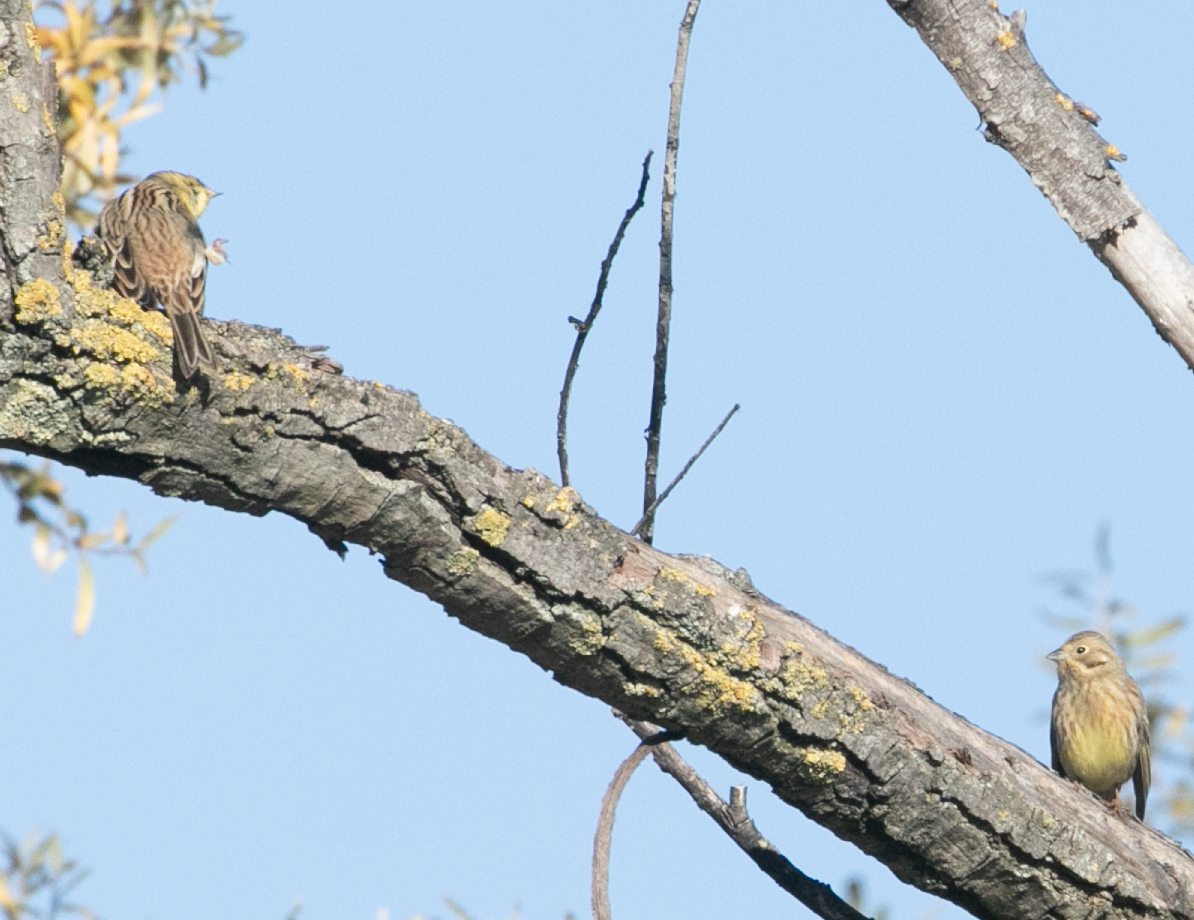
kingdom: Animalia
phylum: Chordata
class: Aves
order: Passeriformes
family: Emberizidae
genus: Emberiza
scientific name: Emberiza citrinella
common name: Yellowhammer
